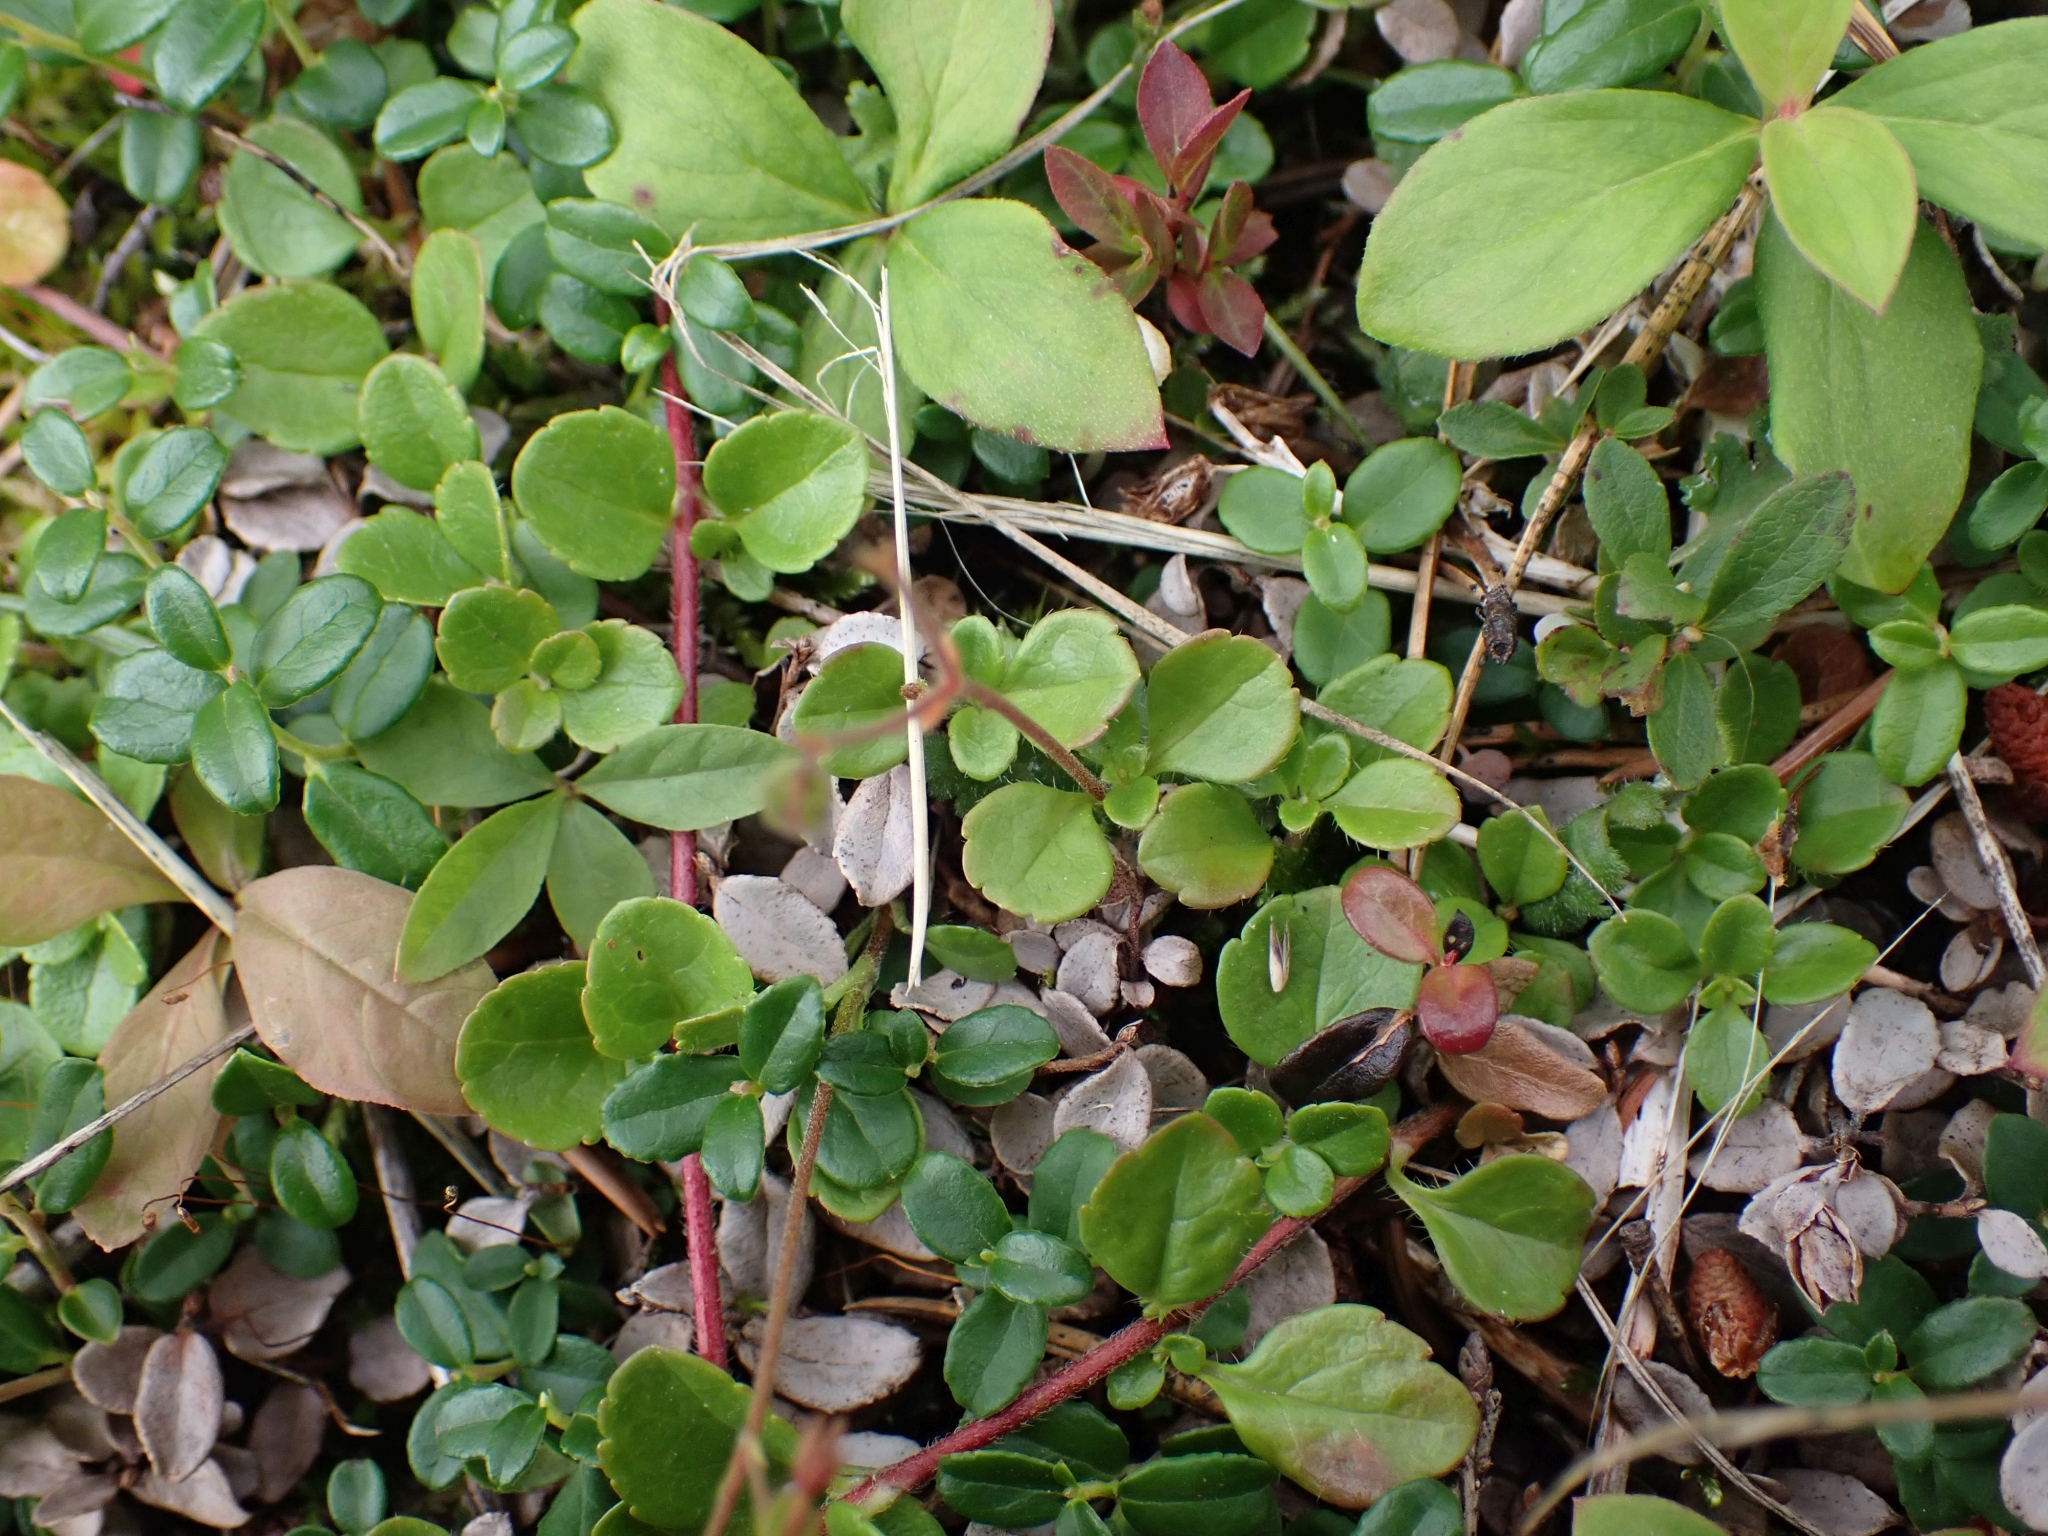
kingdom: Plantae
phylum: Tracheophyta
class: Magnoliopsida
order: Dipsacales
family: Caprifoliaceae
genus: Linnaea
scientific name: Linnaea borealis
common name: Twinflower
